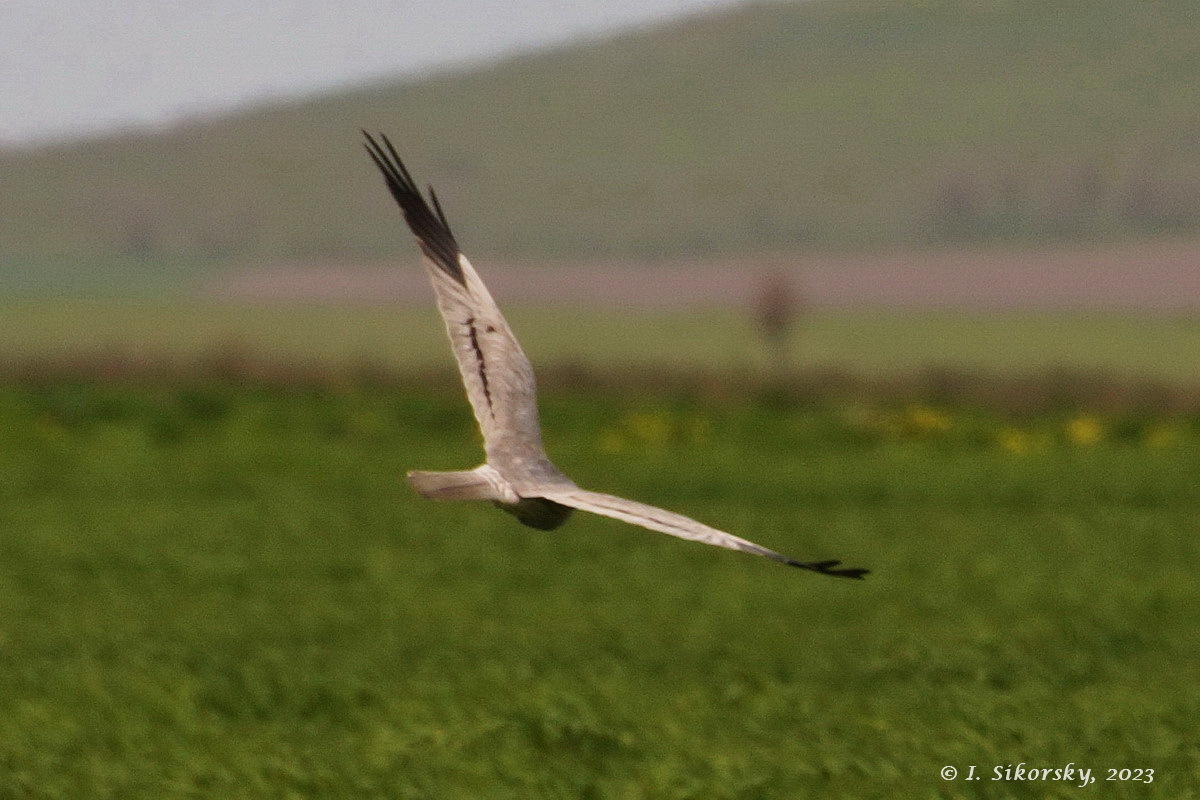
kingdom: Animalia
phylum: Chordata
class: Aves
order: Accipitriformes
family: Accipitridae
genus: Circus
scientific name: Circus pygargus
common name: Montagu's harrier
